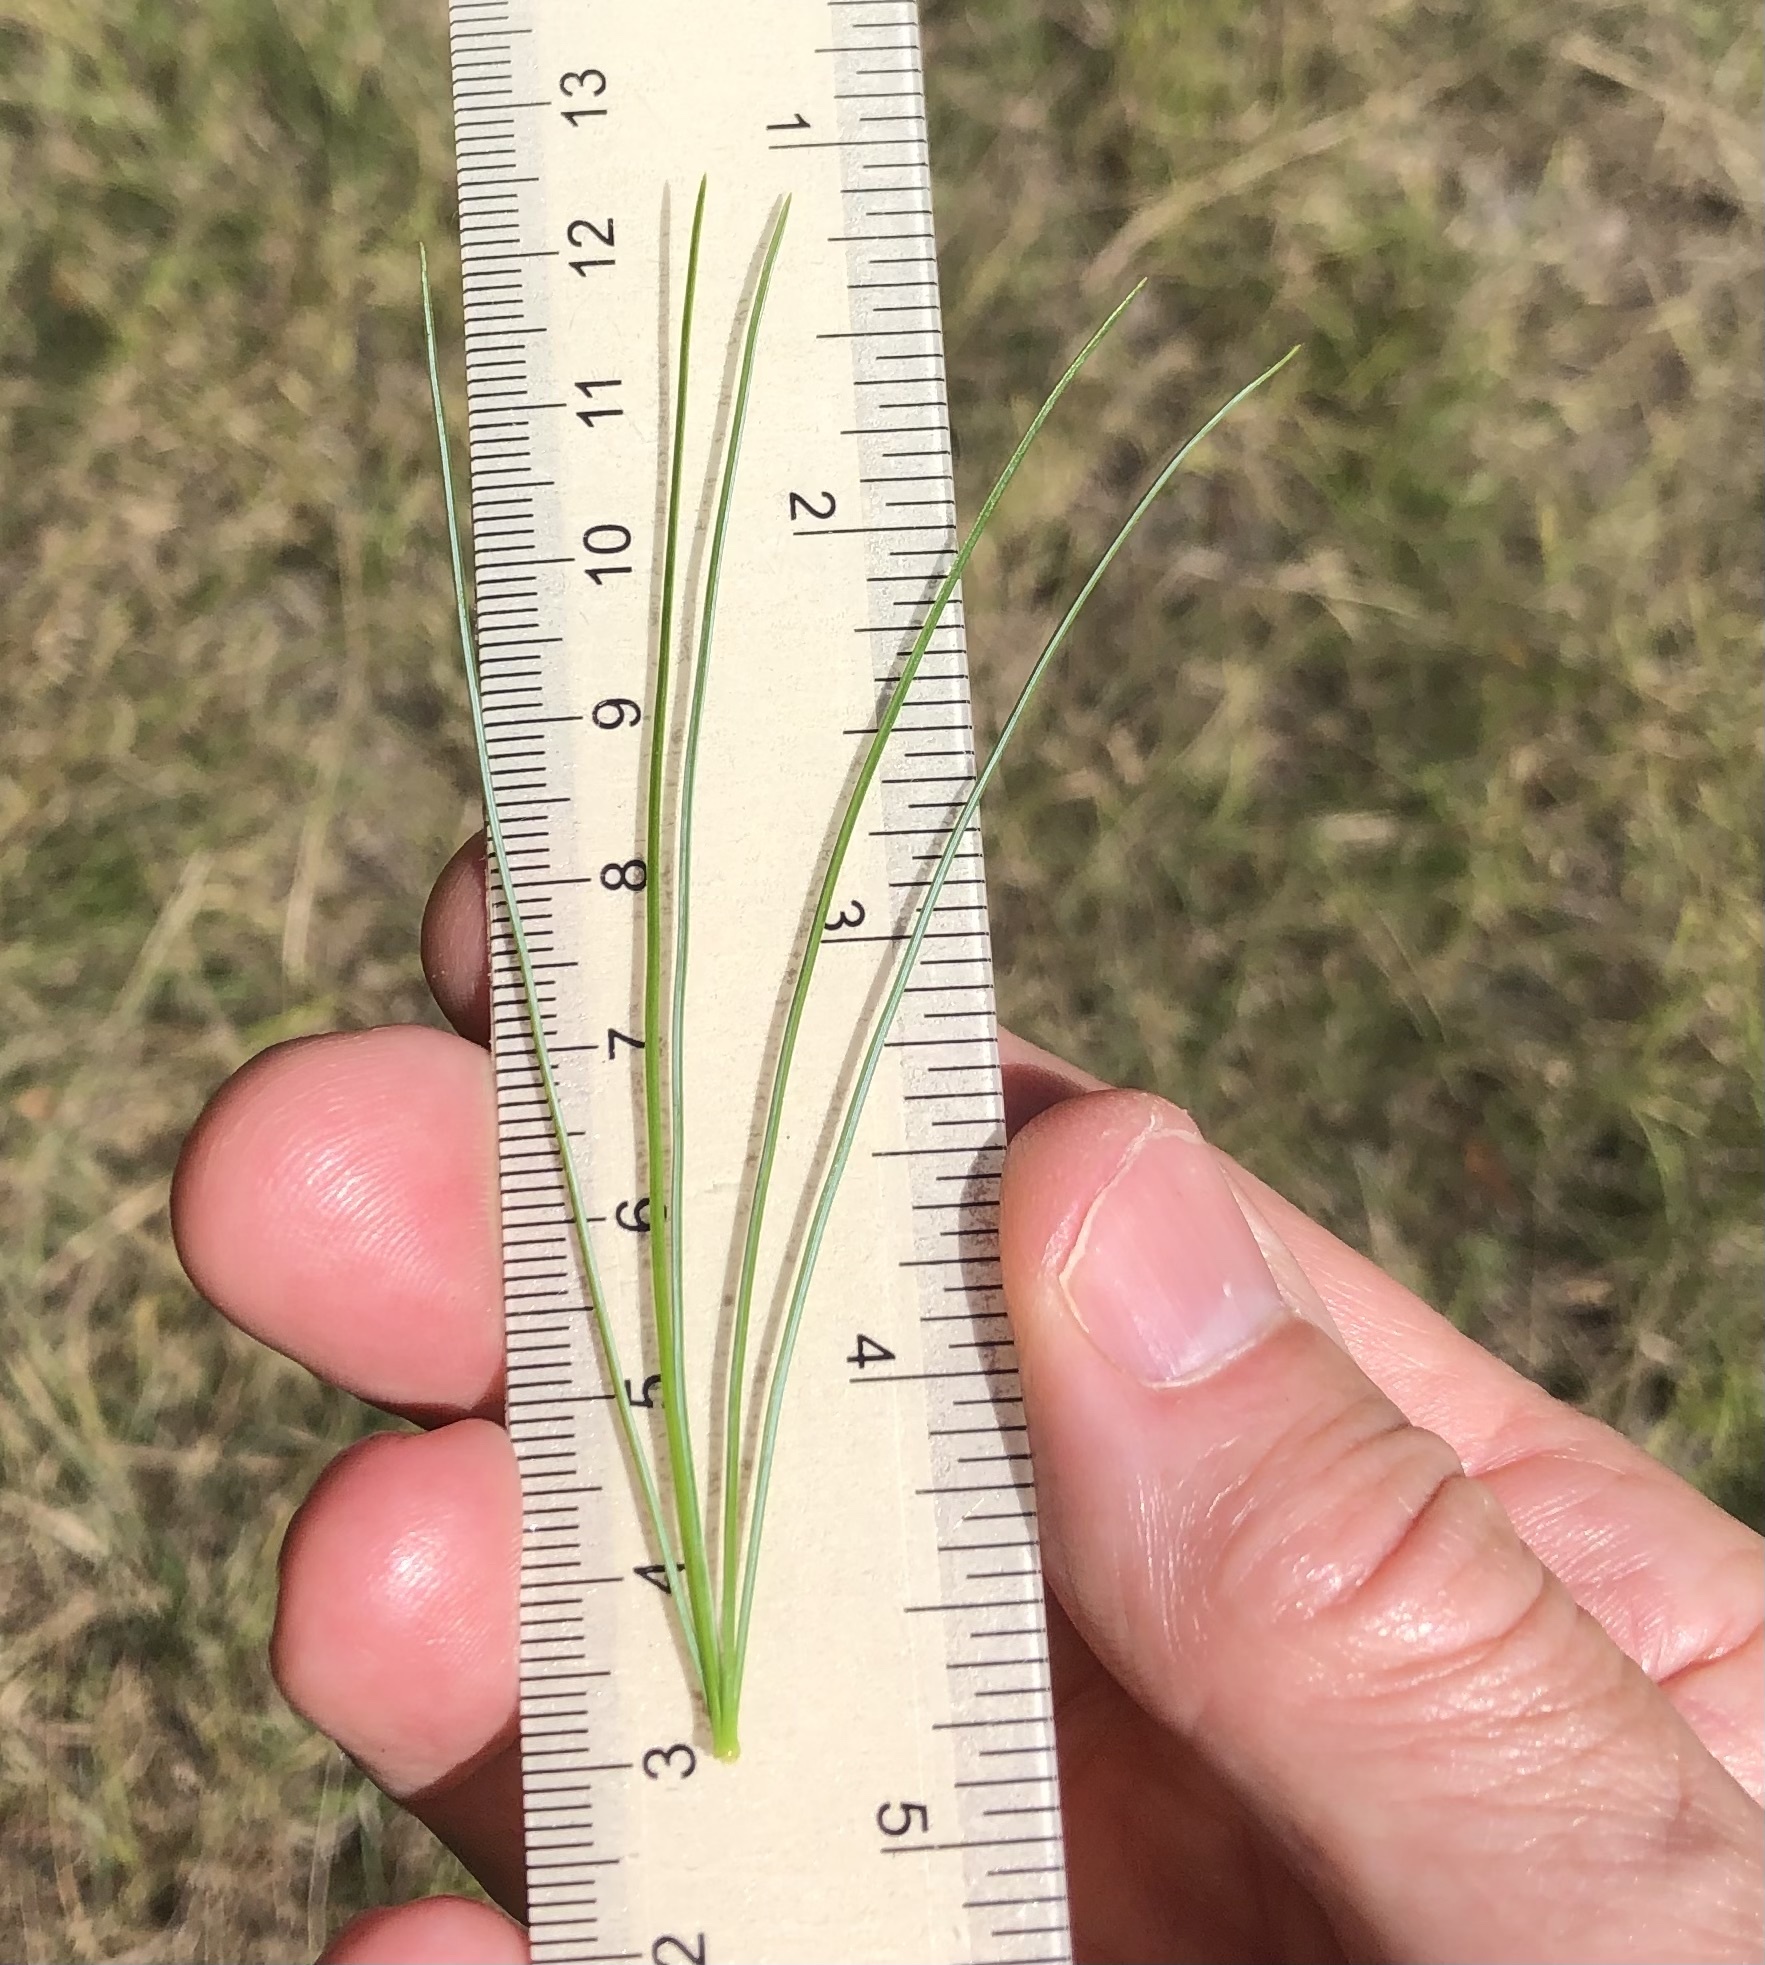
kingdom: Plantae
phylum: Tracheophyta
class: Pinopsida
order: Pinales
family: Pinaceae
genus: Pinus
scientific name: Pinus strobus
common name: Weymouth pine
